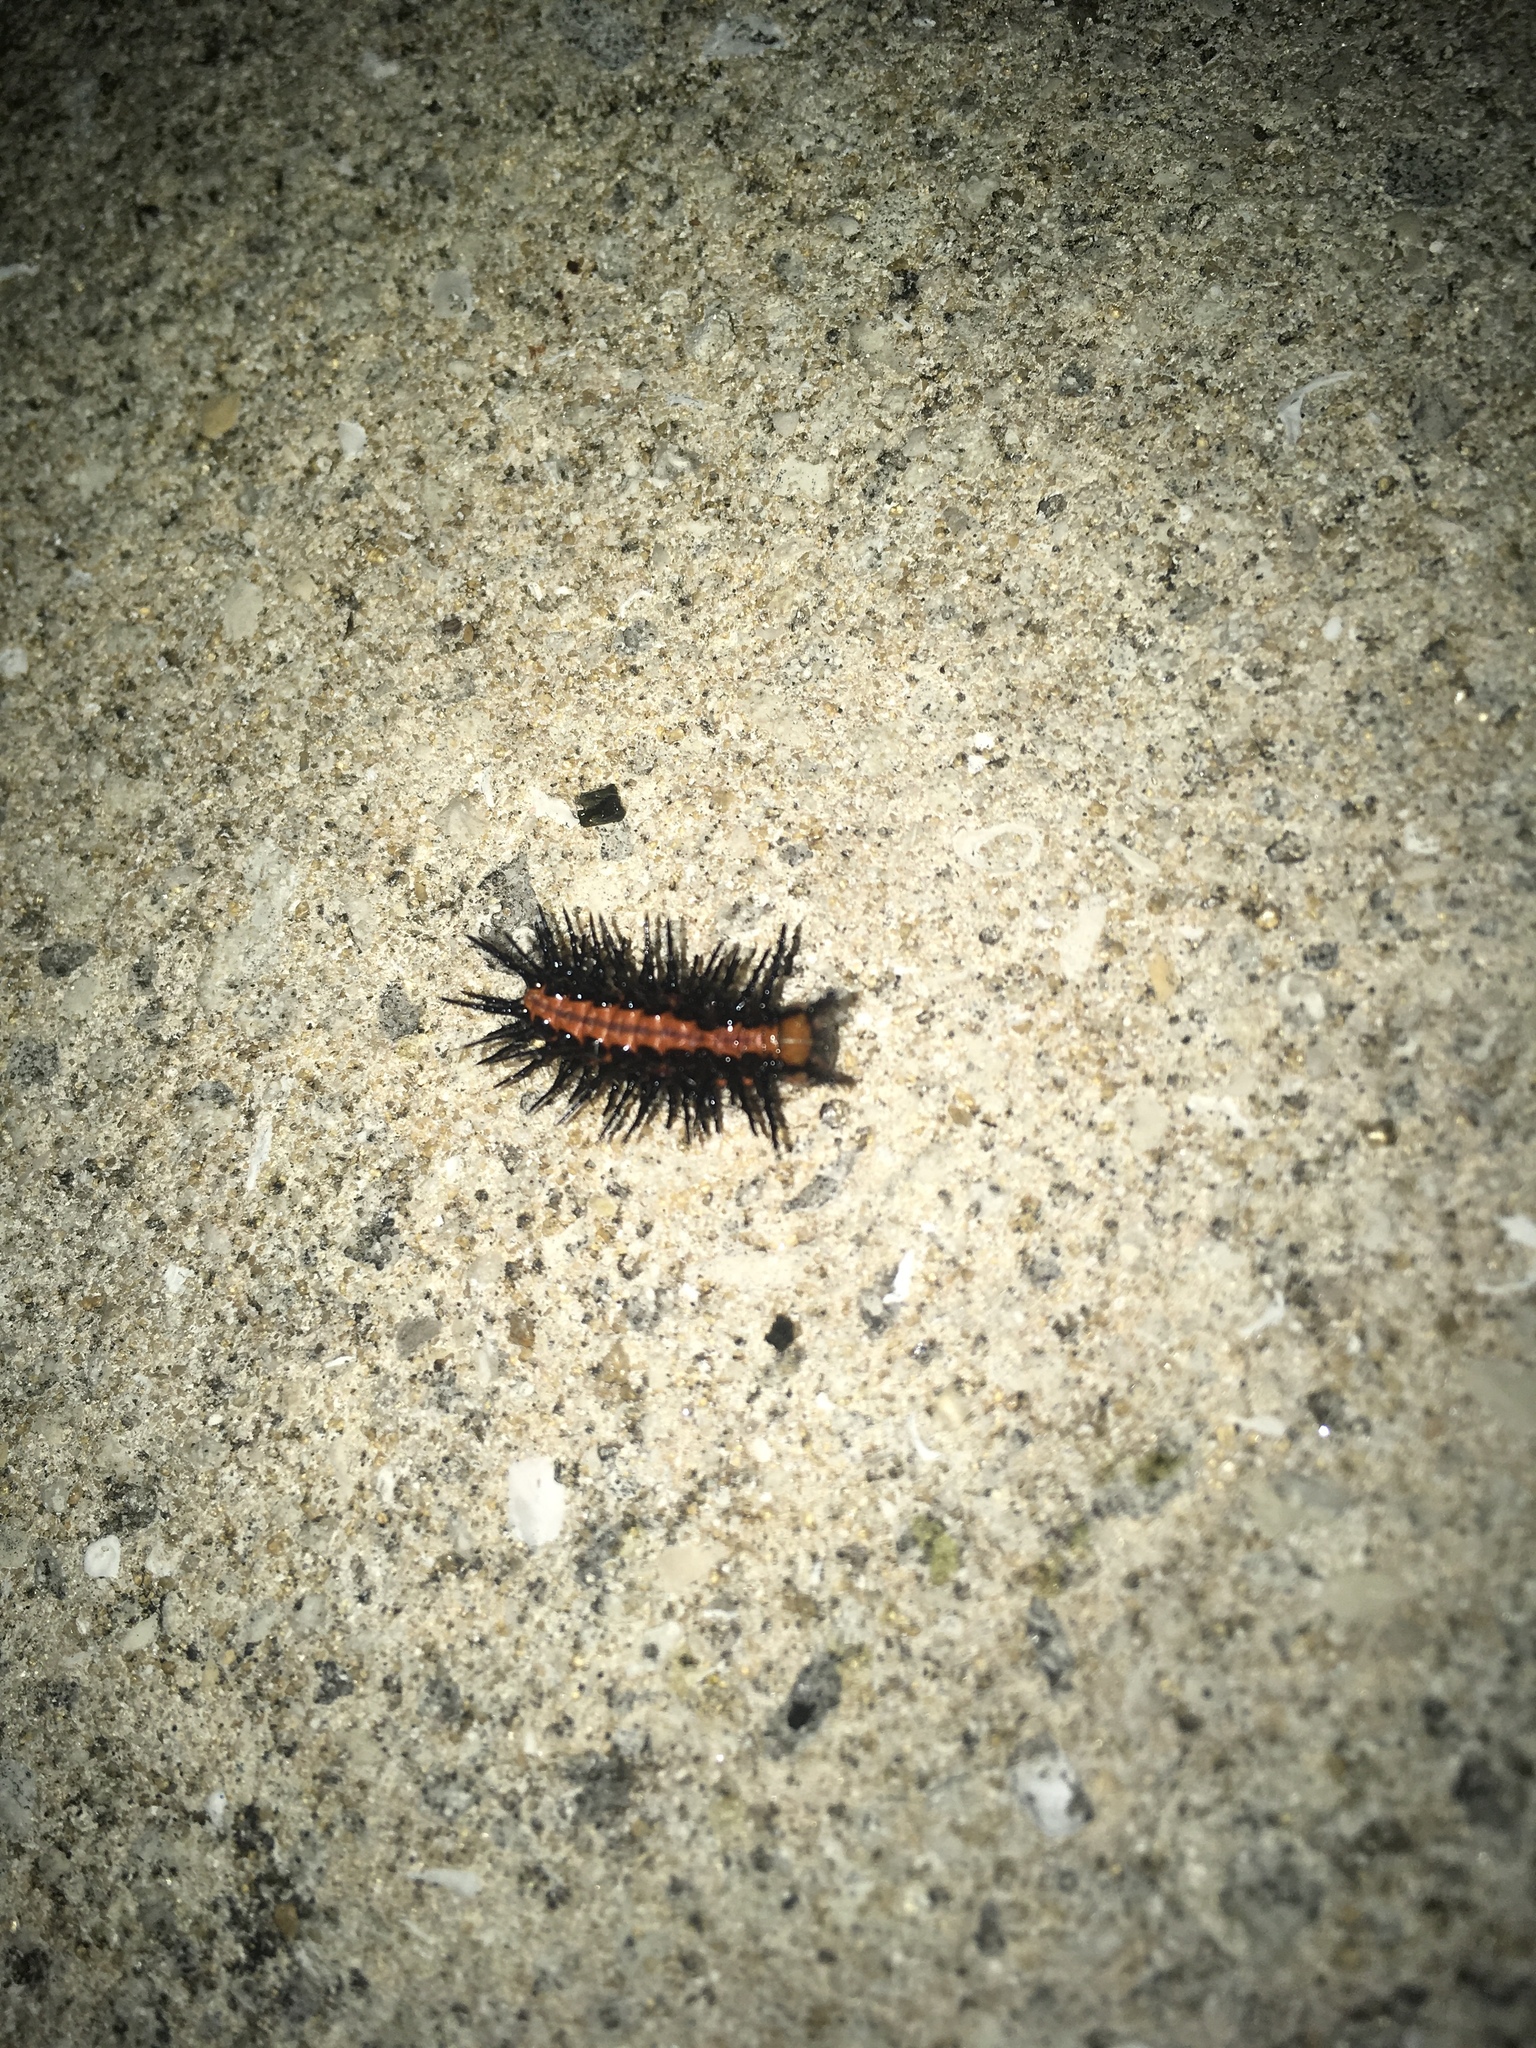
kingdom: Animalia
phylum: Arthropoda
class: Insecta
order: Lepidoptera
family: Nymphalidae
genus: Dione
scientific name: Dione vanillae
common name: Gulf fritillary
